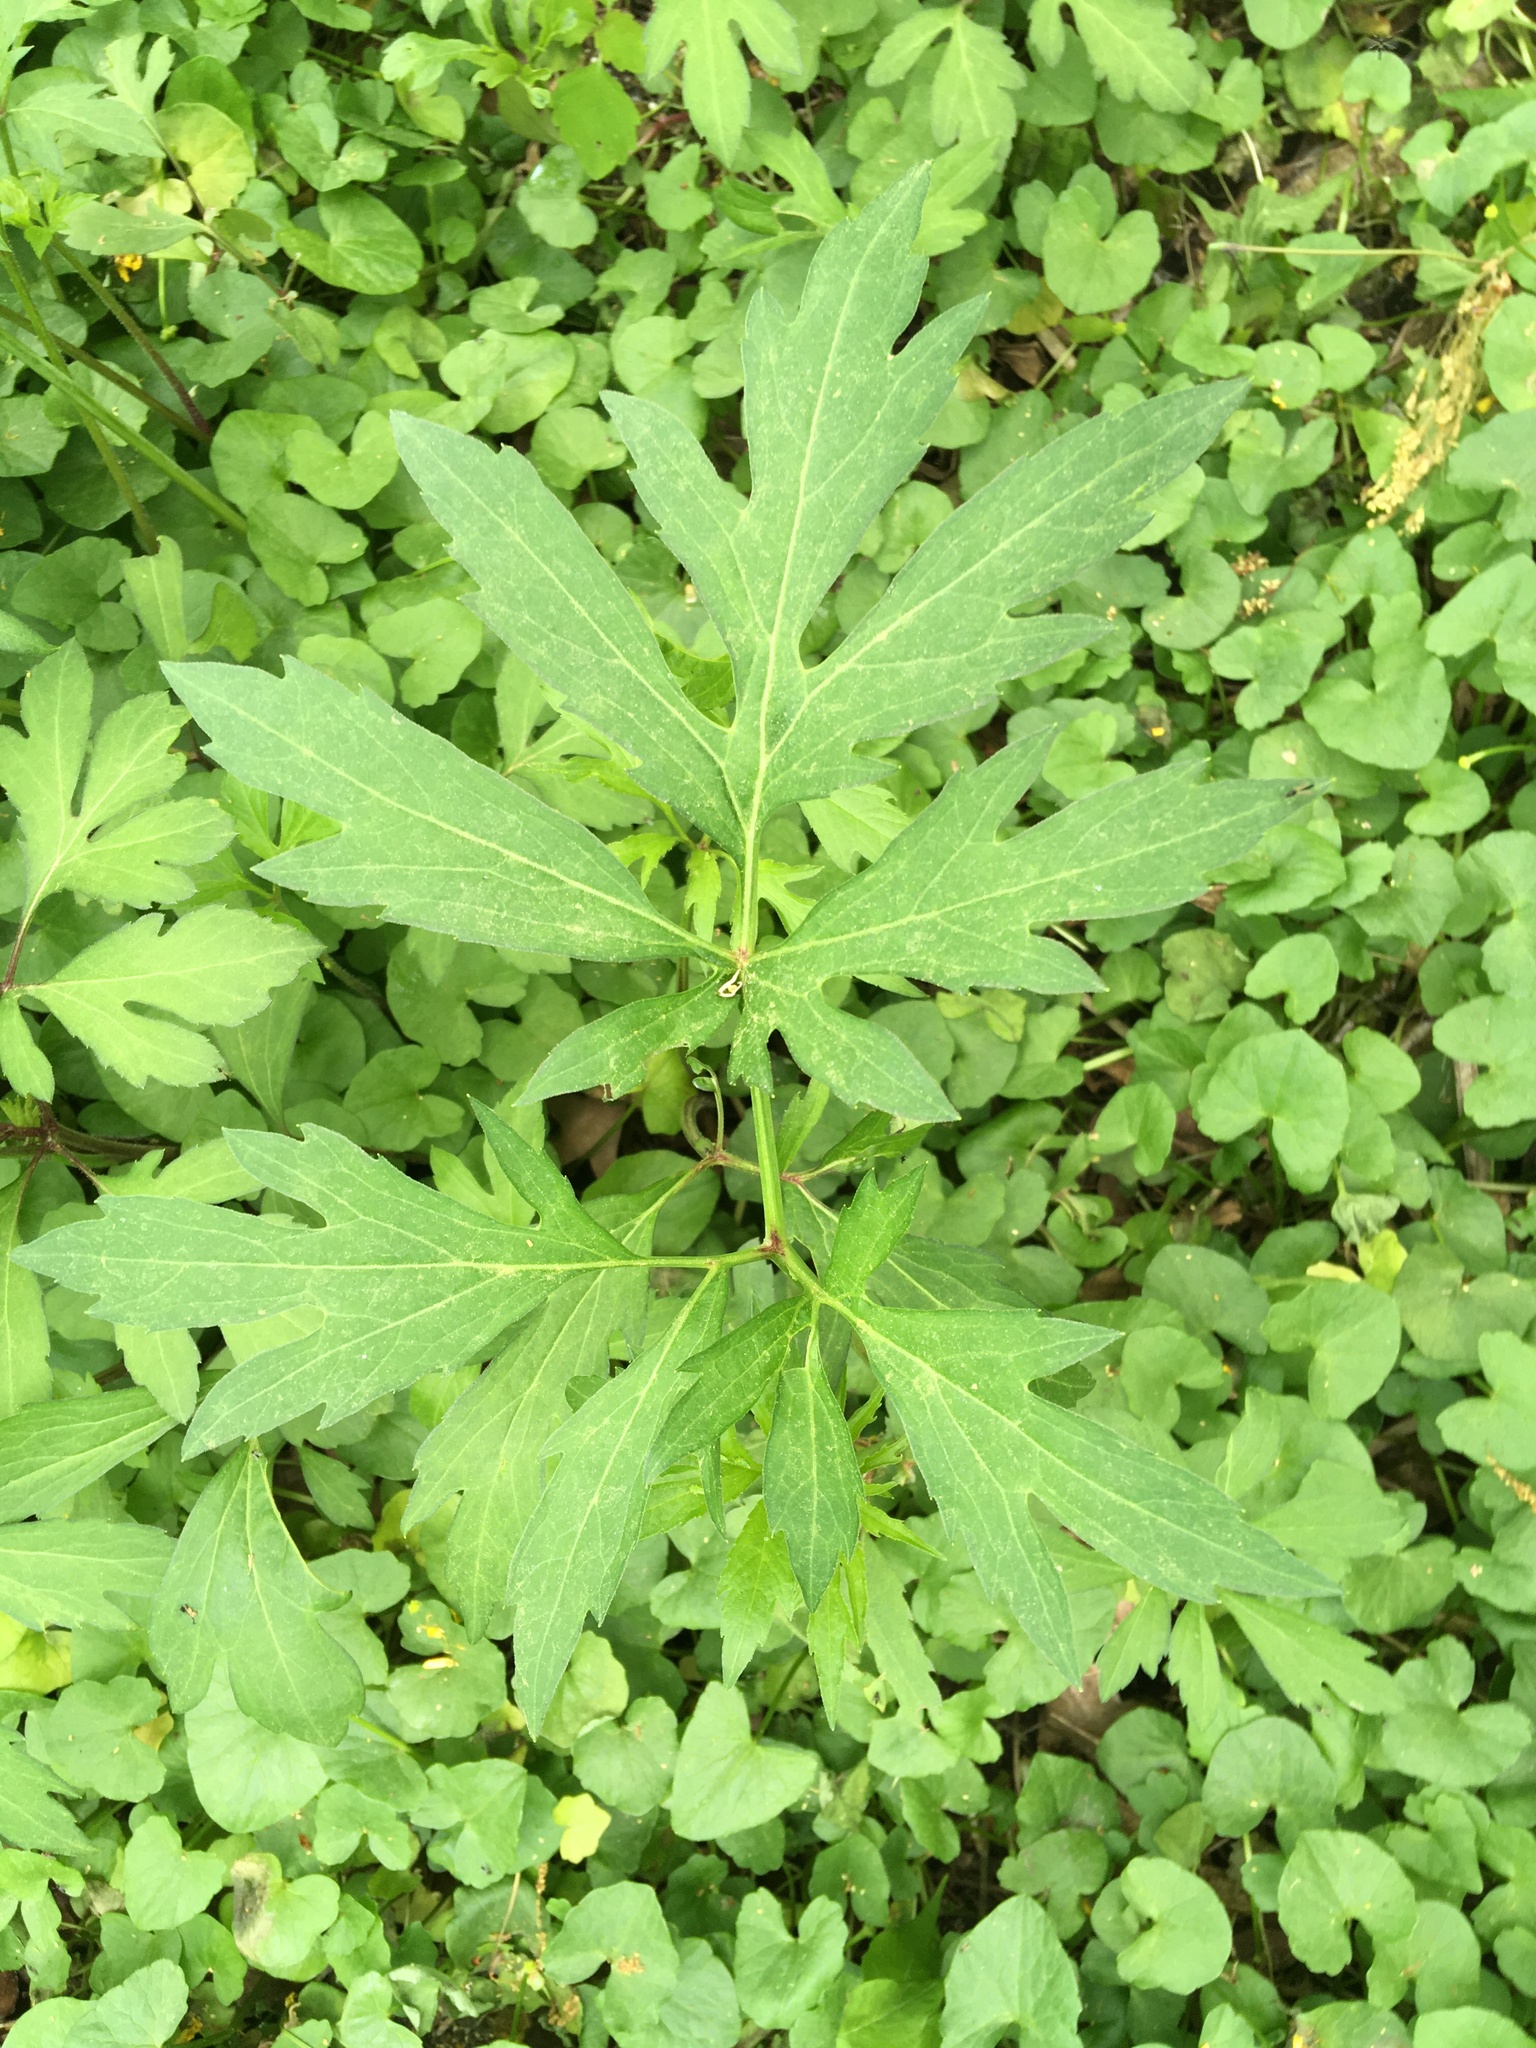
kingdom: Plantae
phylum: Tracheophyta
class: Magnoliopsida
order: Asterales
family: Asteraceae
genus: Rudbeckia
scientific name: Rudbeckia laciniata
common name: Coneflower
